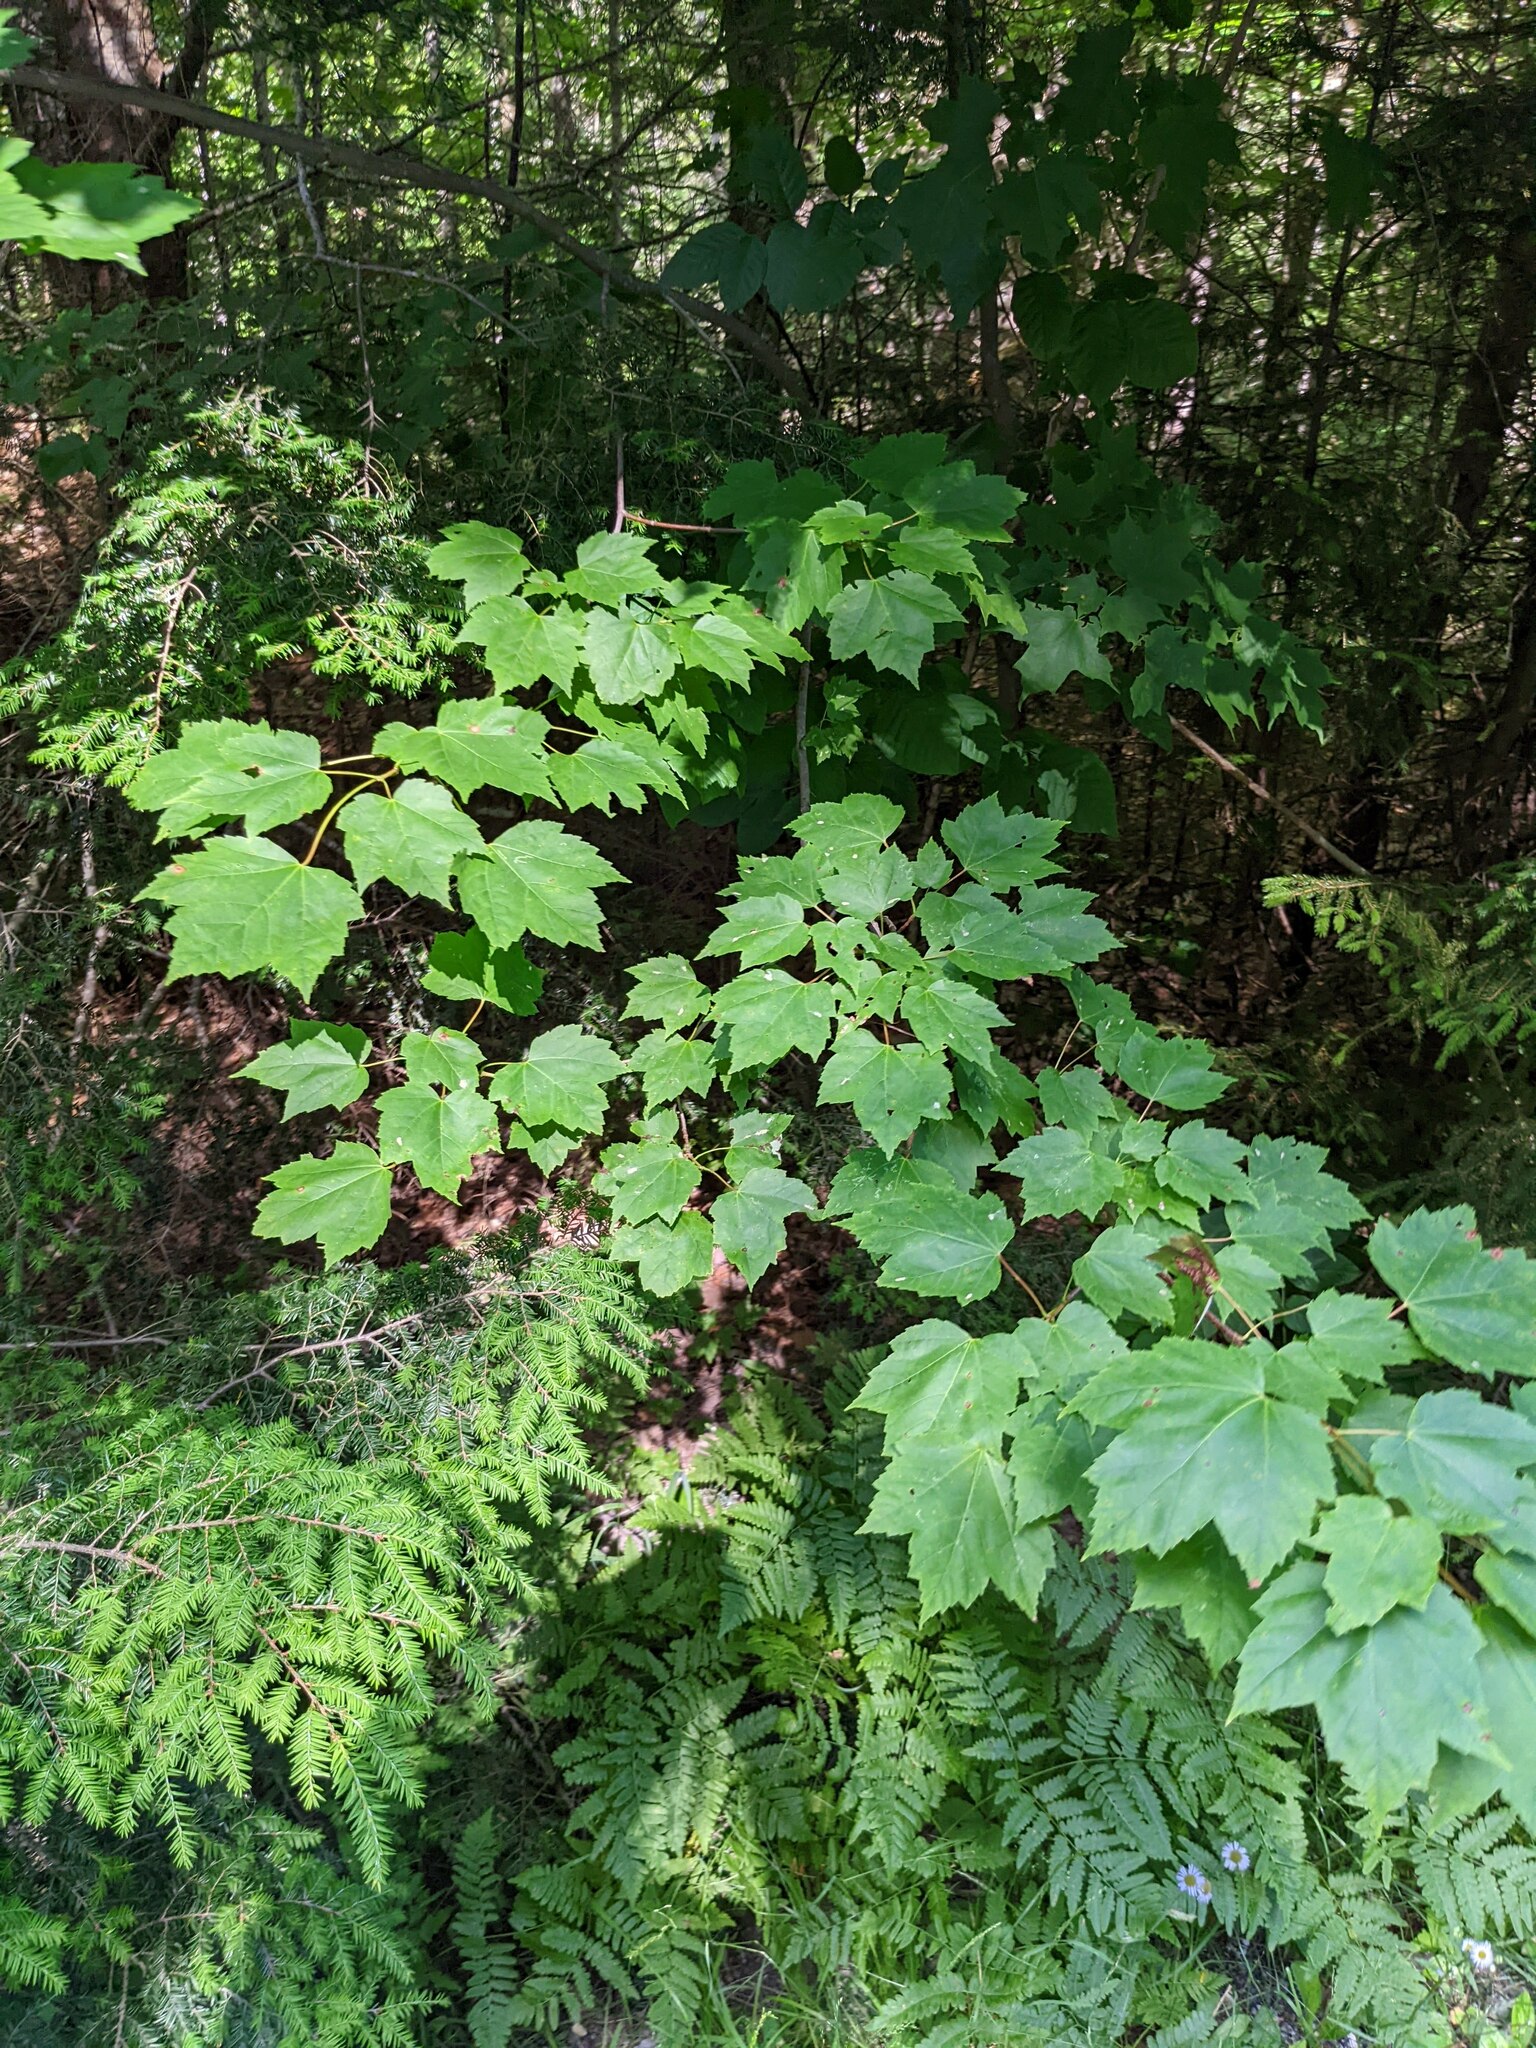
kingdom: Plantae
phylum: Tracheophyta
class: Magnoliopsida
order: Sapindales
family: Sapindaceae
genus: Acer
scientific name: Acer rubrum
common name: Red maple
